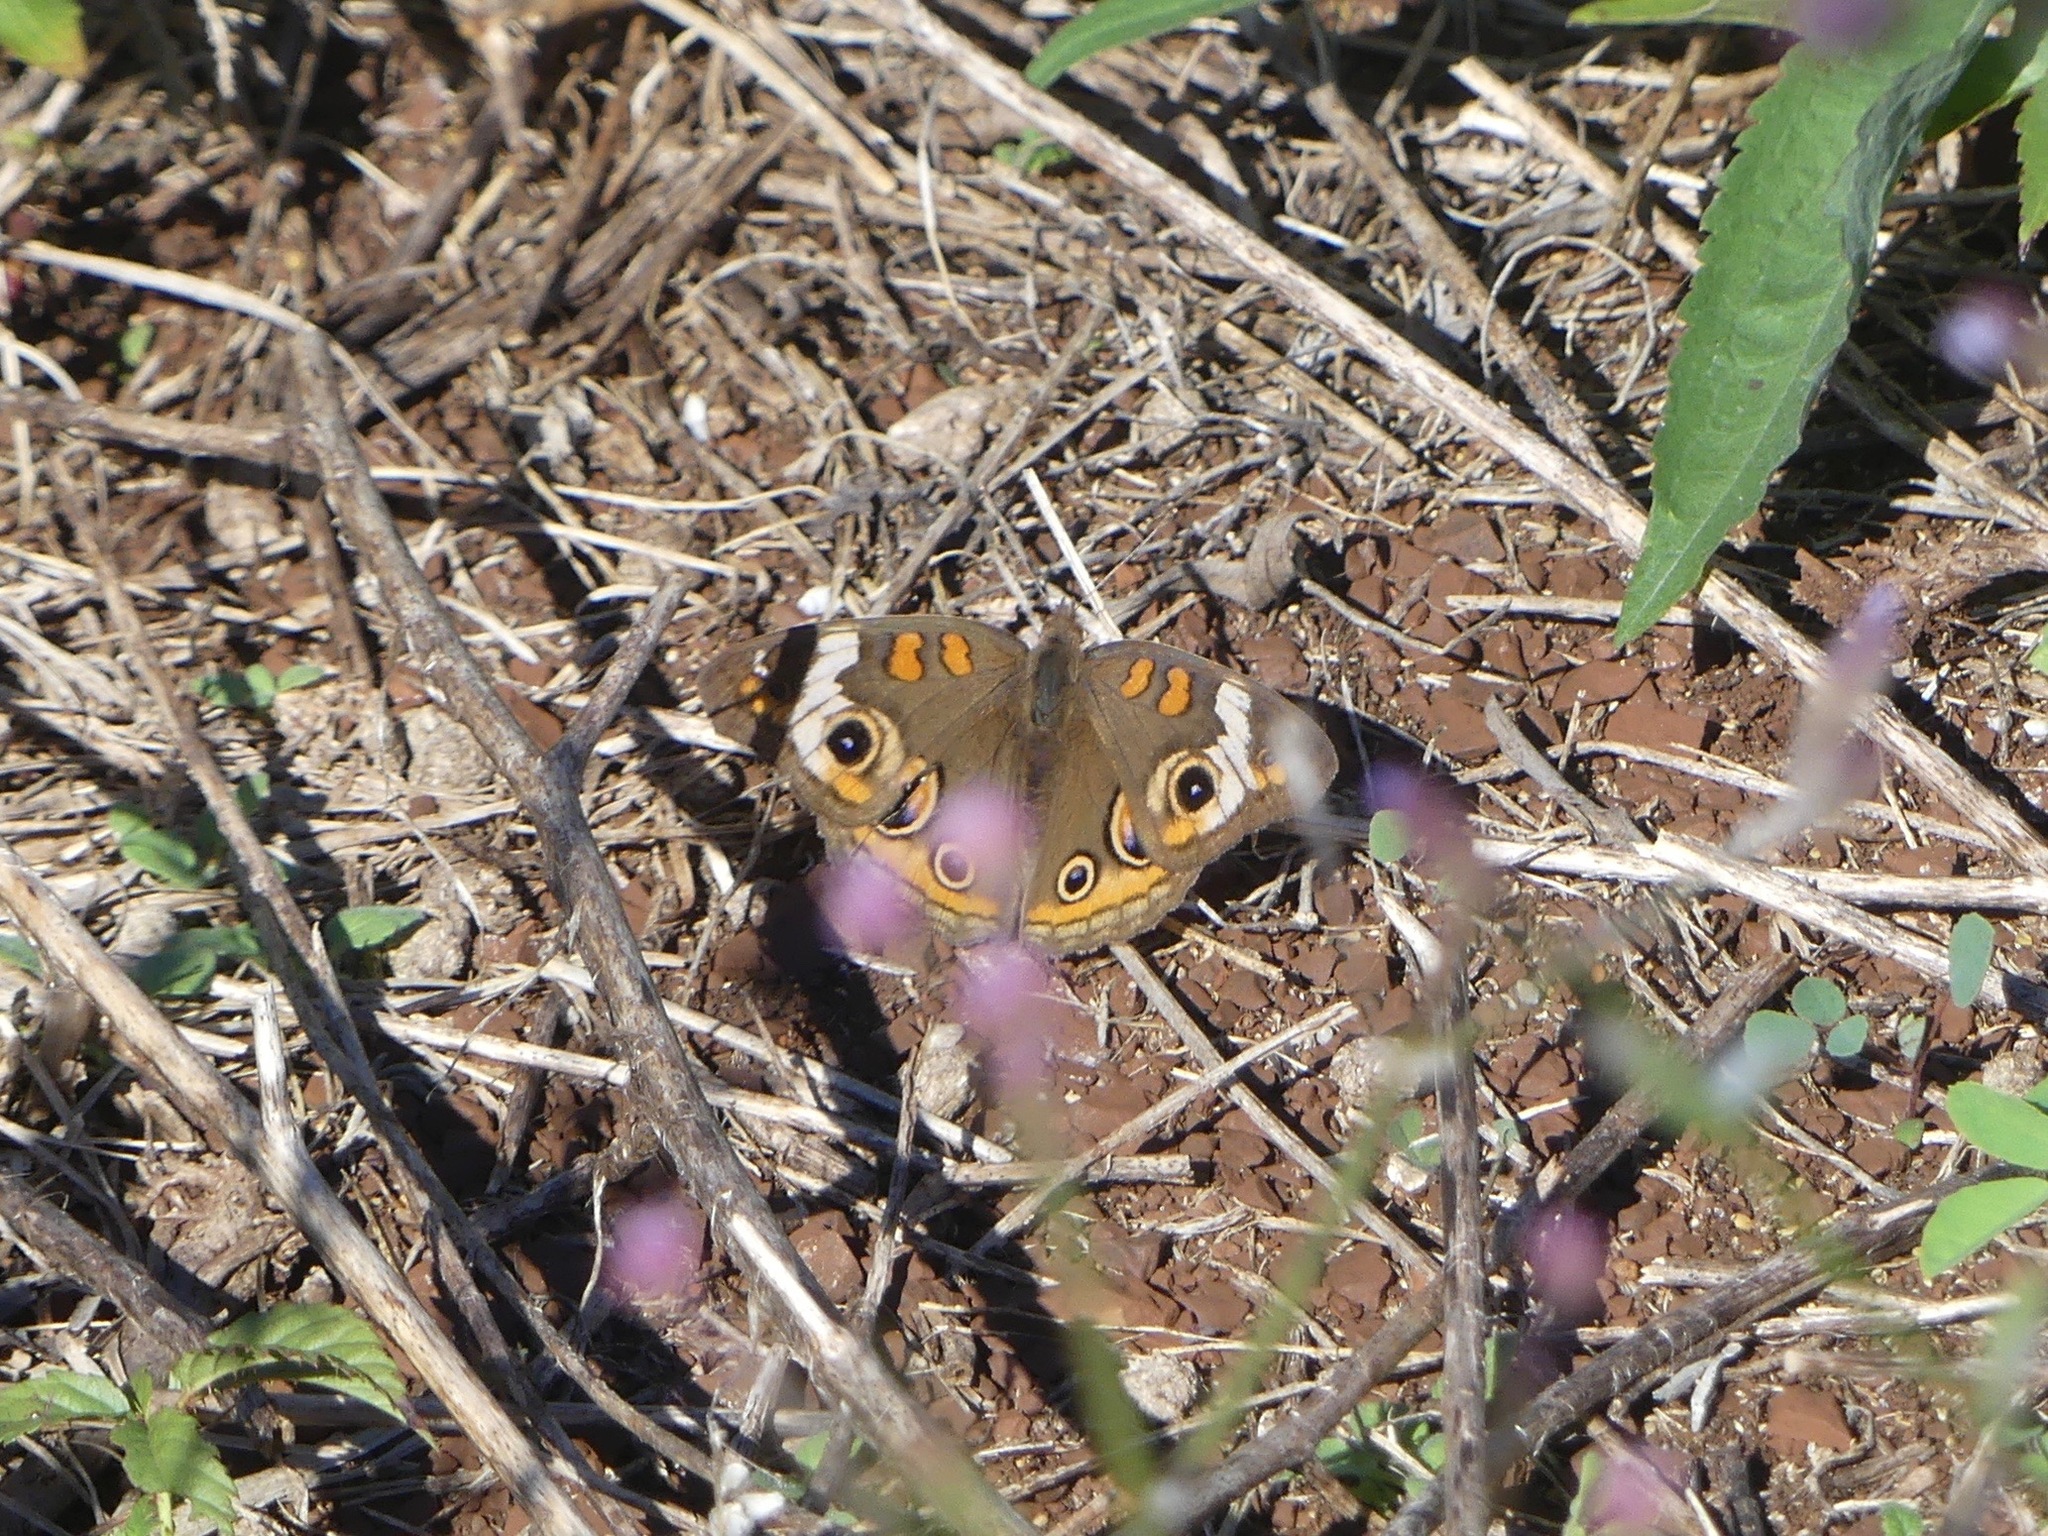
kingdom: Animalia
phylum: Arthropoda
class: Insecta
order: Lepidoptera
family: Nymphalidae
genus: Junonia
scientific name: Junonia coenia
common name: Common buckeye
